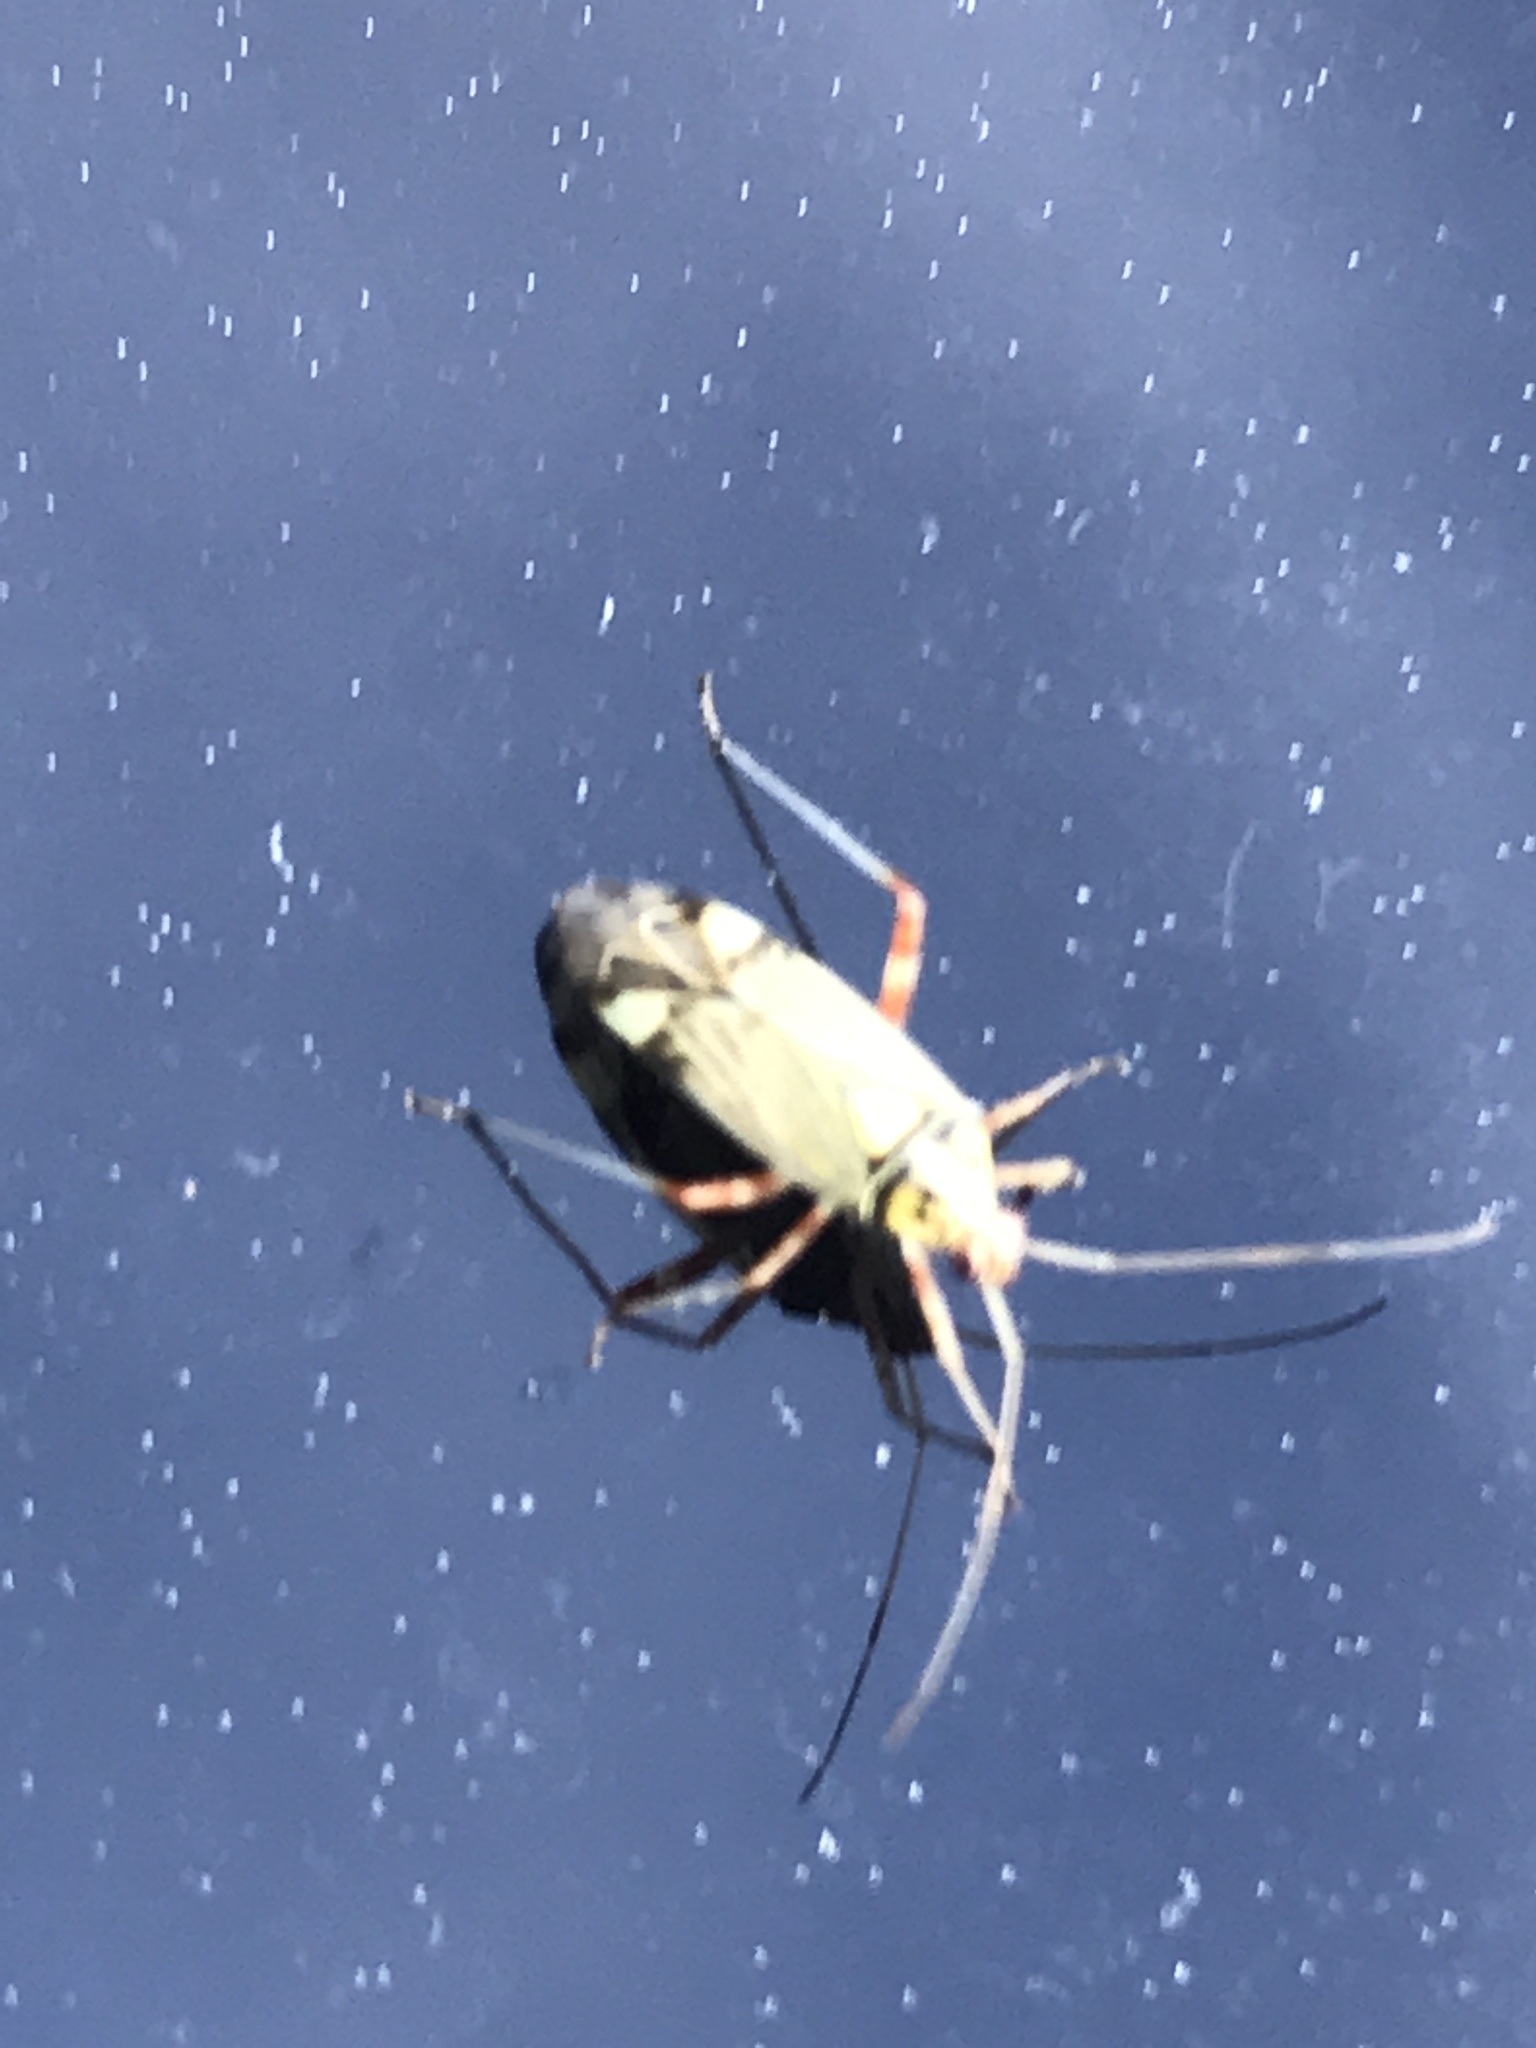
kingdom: Animalia
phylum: Arthropoda
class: Insecta
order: Hemiptera
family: Miridae
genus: Rhabdomiris
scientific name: Rhabdomiris striatellus
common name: Plant bug
